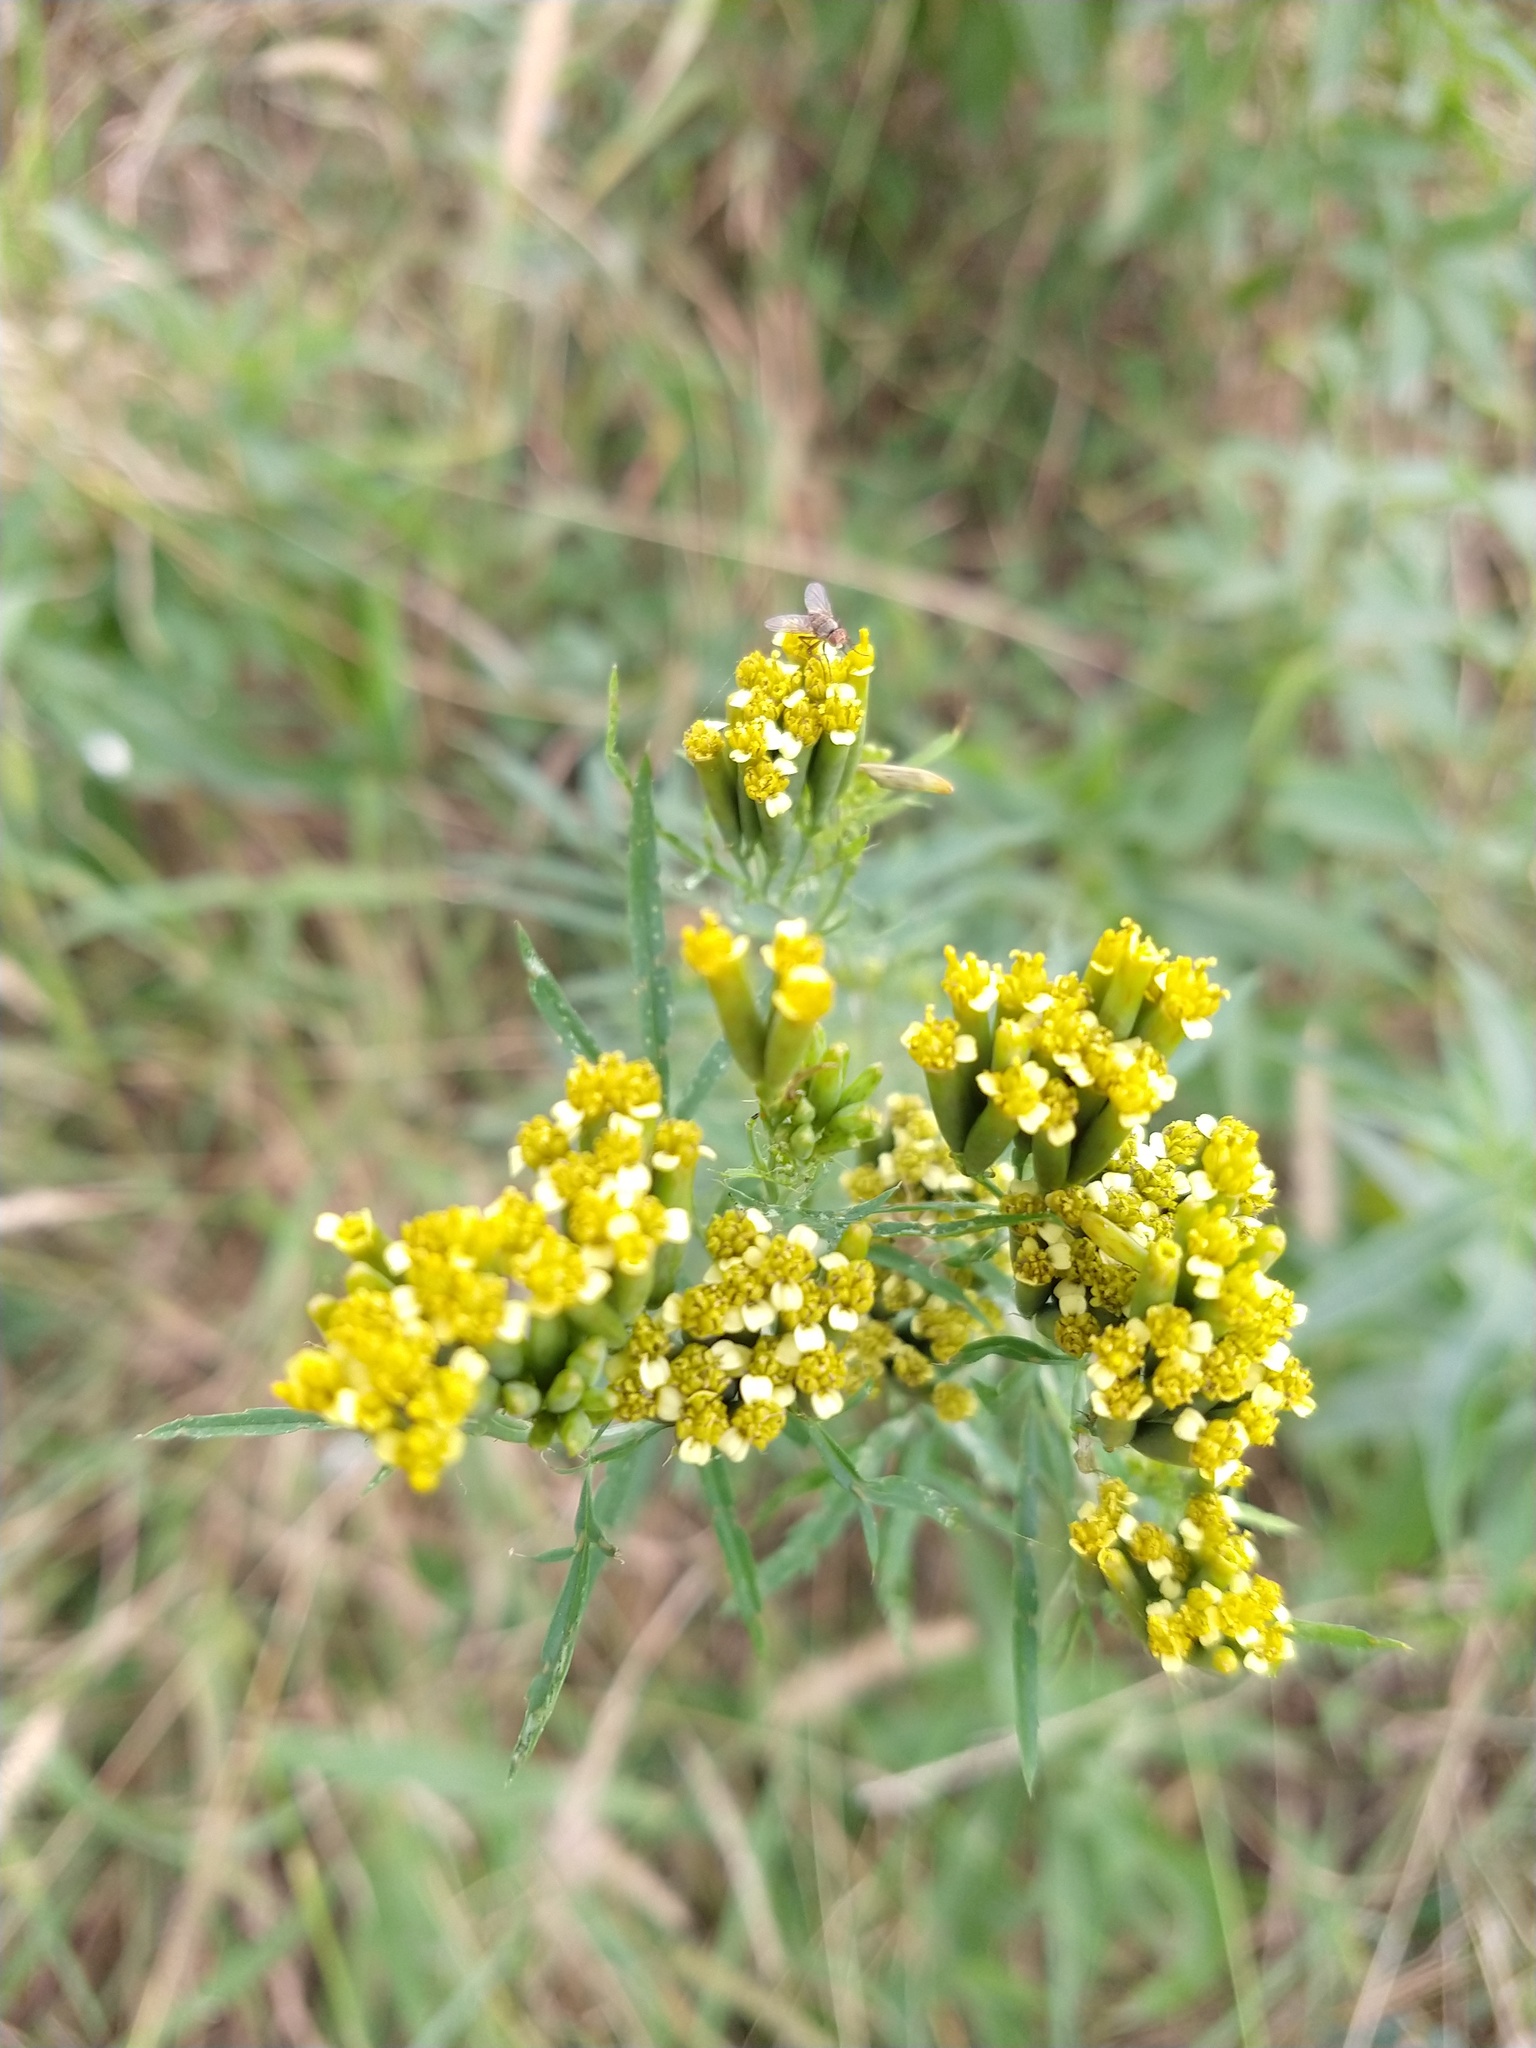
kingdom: Plantae
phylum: Tracheophyta
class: Magnoliopsida
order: Asterales
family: Asteraceae
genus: Tagetes
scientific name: Tagetes minuta
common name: Muster john henry
